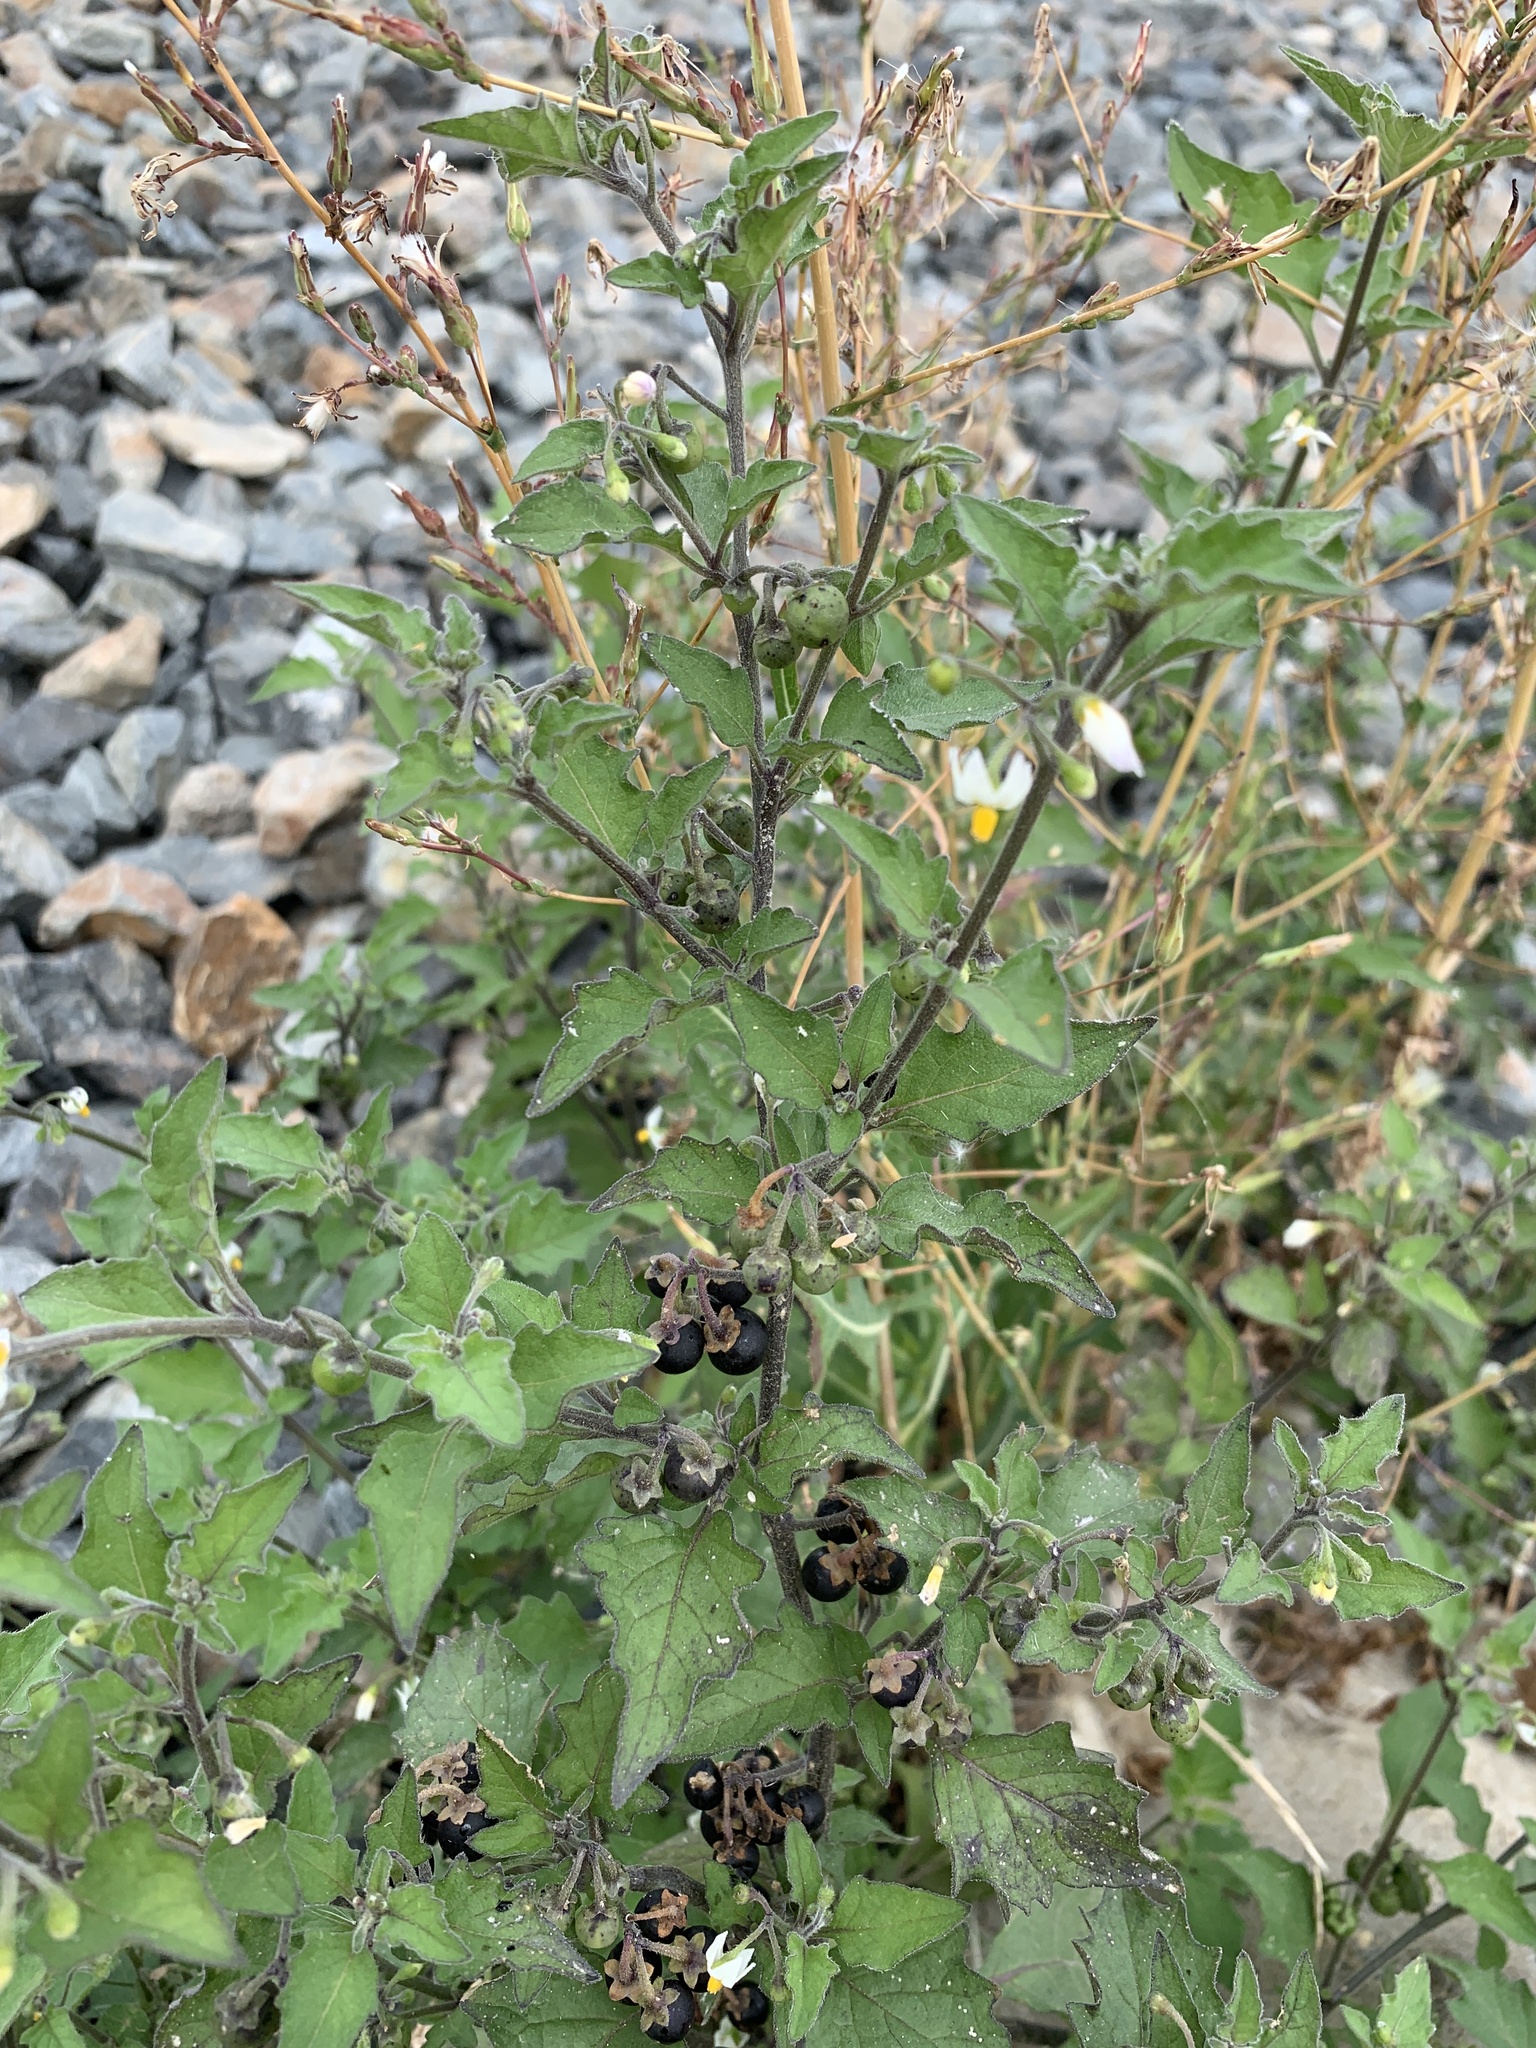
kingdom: Plantae
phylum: Tracheophyta
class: Magnoliopsida
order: Solanales
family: Solanaceae
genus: Solanum
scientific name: Solanum nigrum
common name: Black nightshade
